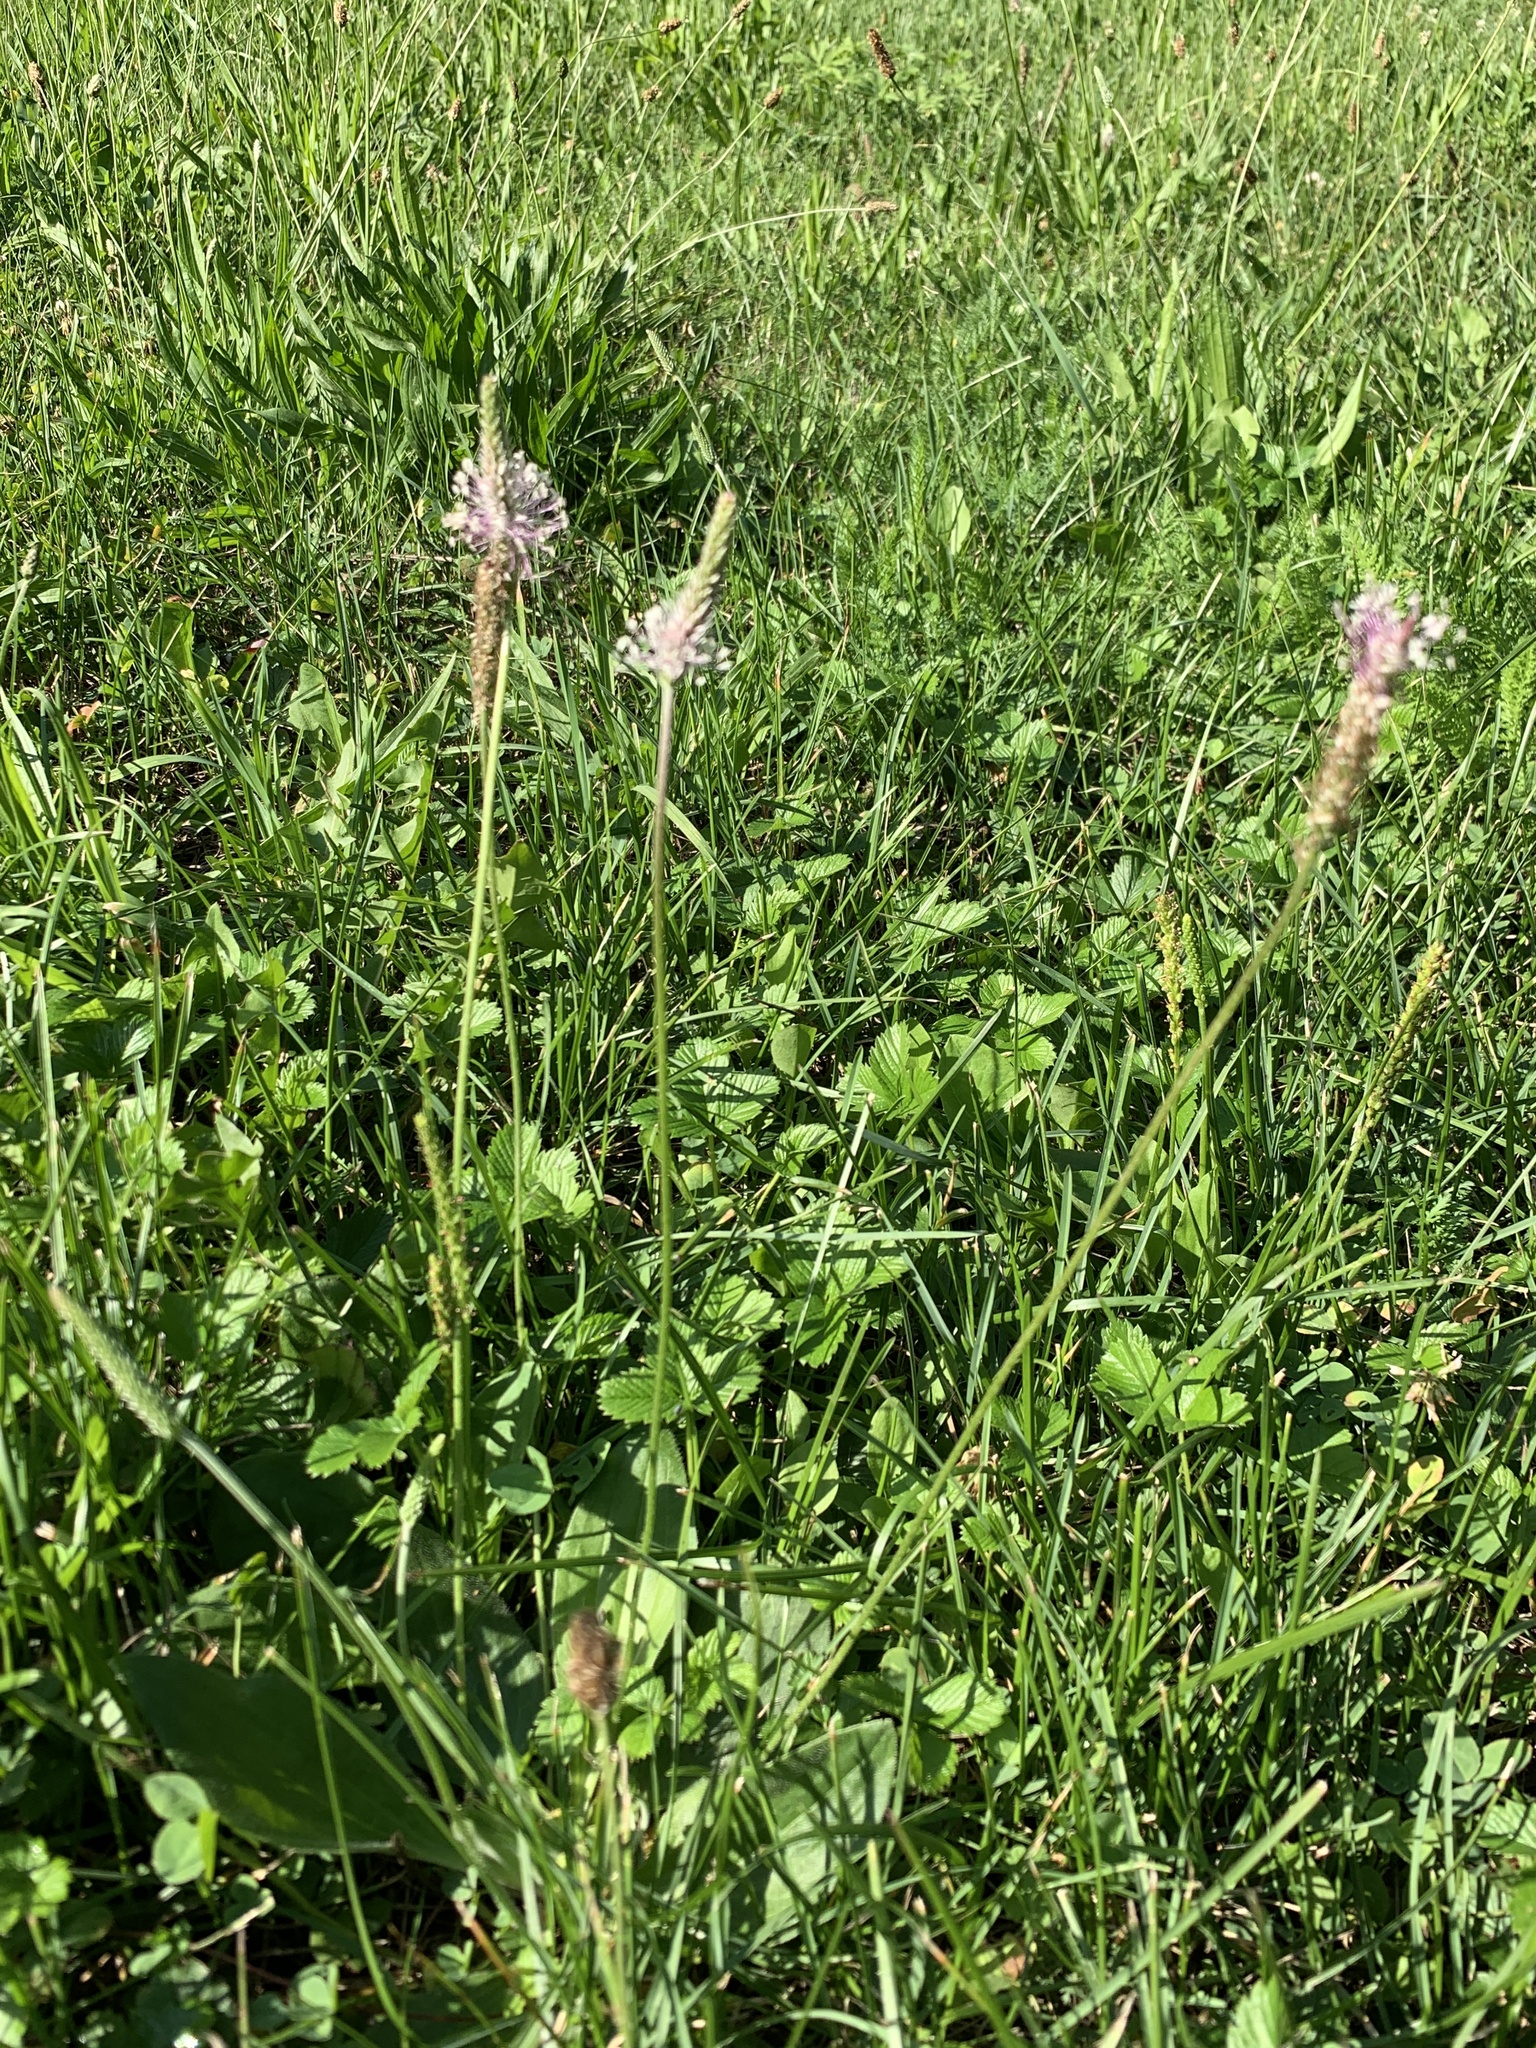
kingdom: Plantae
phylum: Tracheophyta
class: Magnoliopsida
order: Lamiales
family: Plantaginaceae
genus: Plantago
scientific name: Plantago media
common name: Hoary plantain
